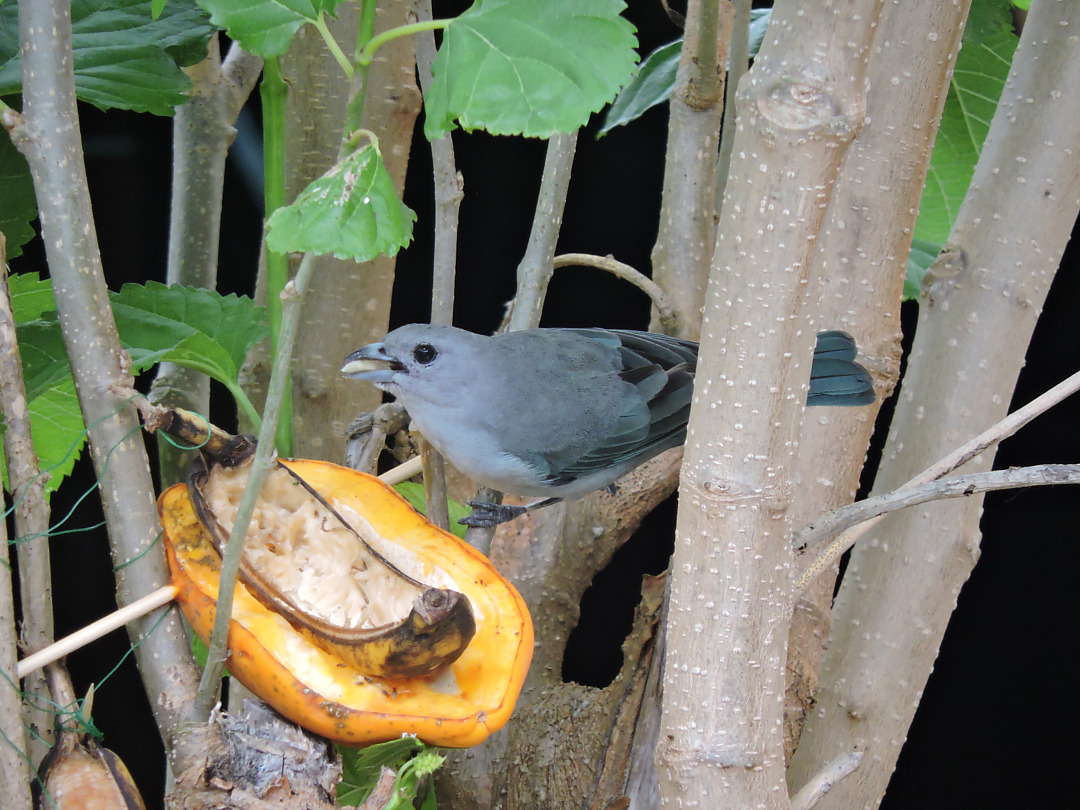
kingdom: Animalia
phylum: Chordata
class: Aves
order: Passeriformes
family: Thraupidae
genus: Thraupis
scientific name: Thraupis sayaca
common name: Sayaca tanager
